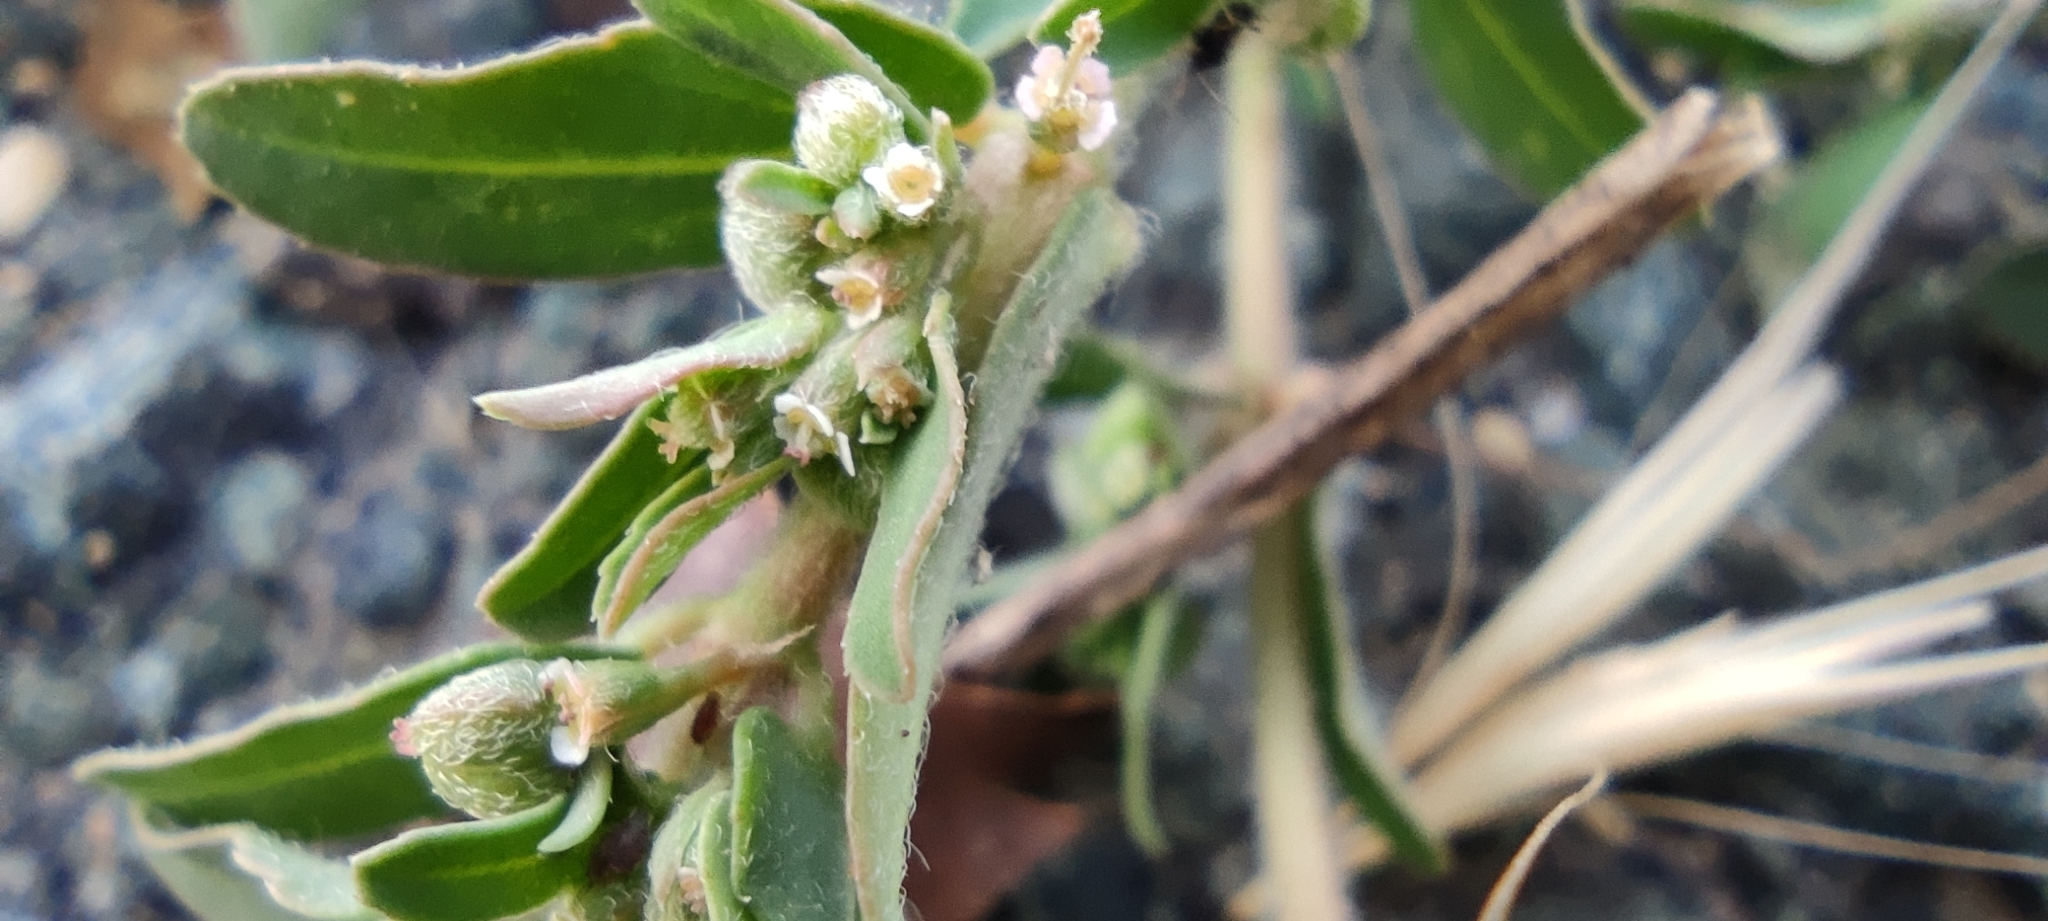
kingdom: Plantae
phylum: Tracheophyta
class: Magnoliopsida
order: Malpighiales
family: Euphorbiaceae
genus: Euphorbia
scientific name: Euphorbia maculata
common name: Spotted spurge
